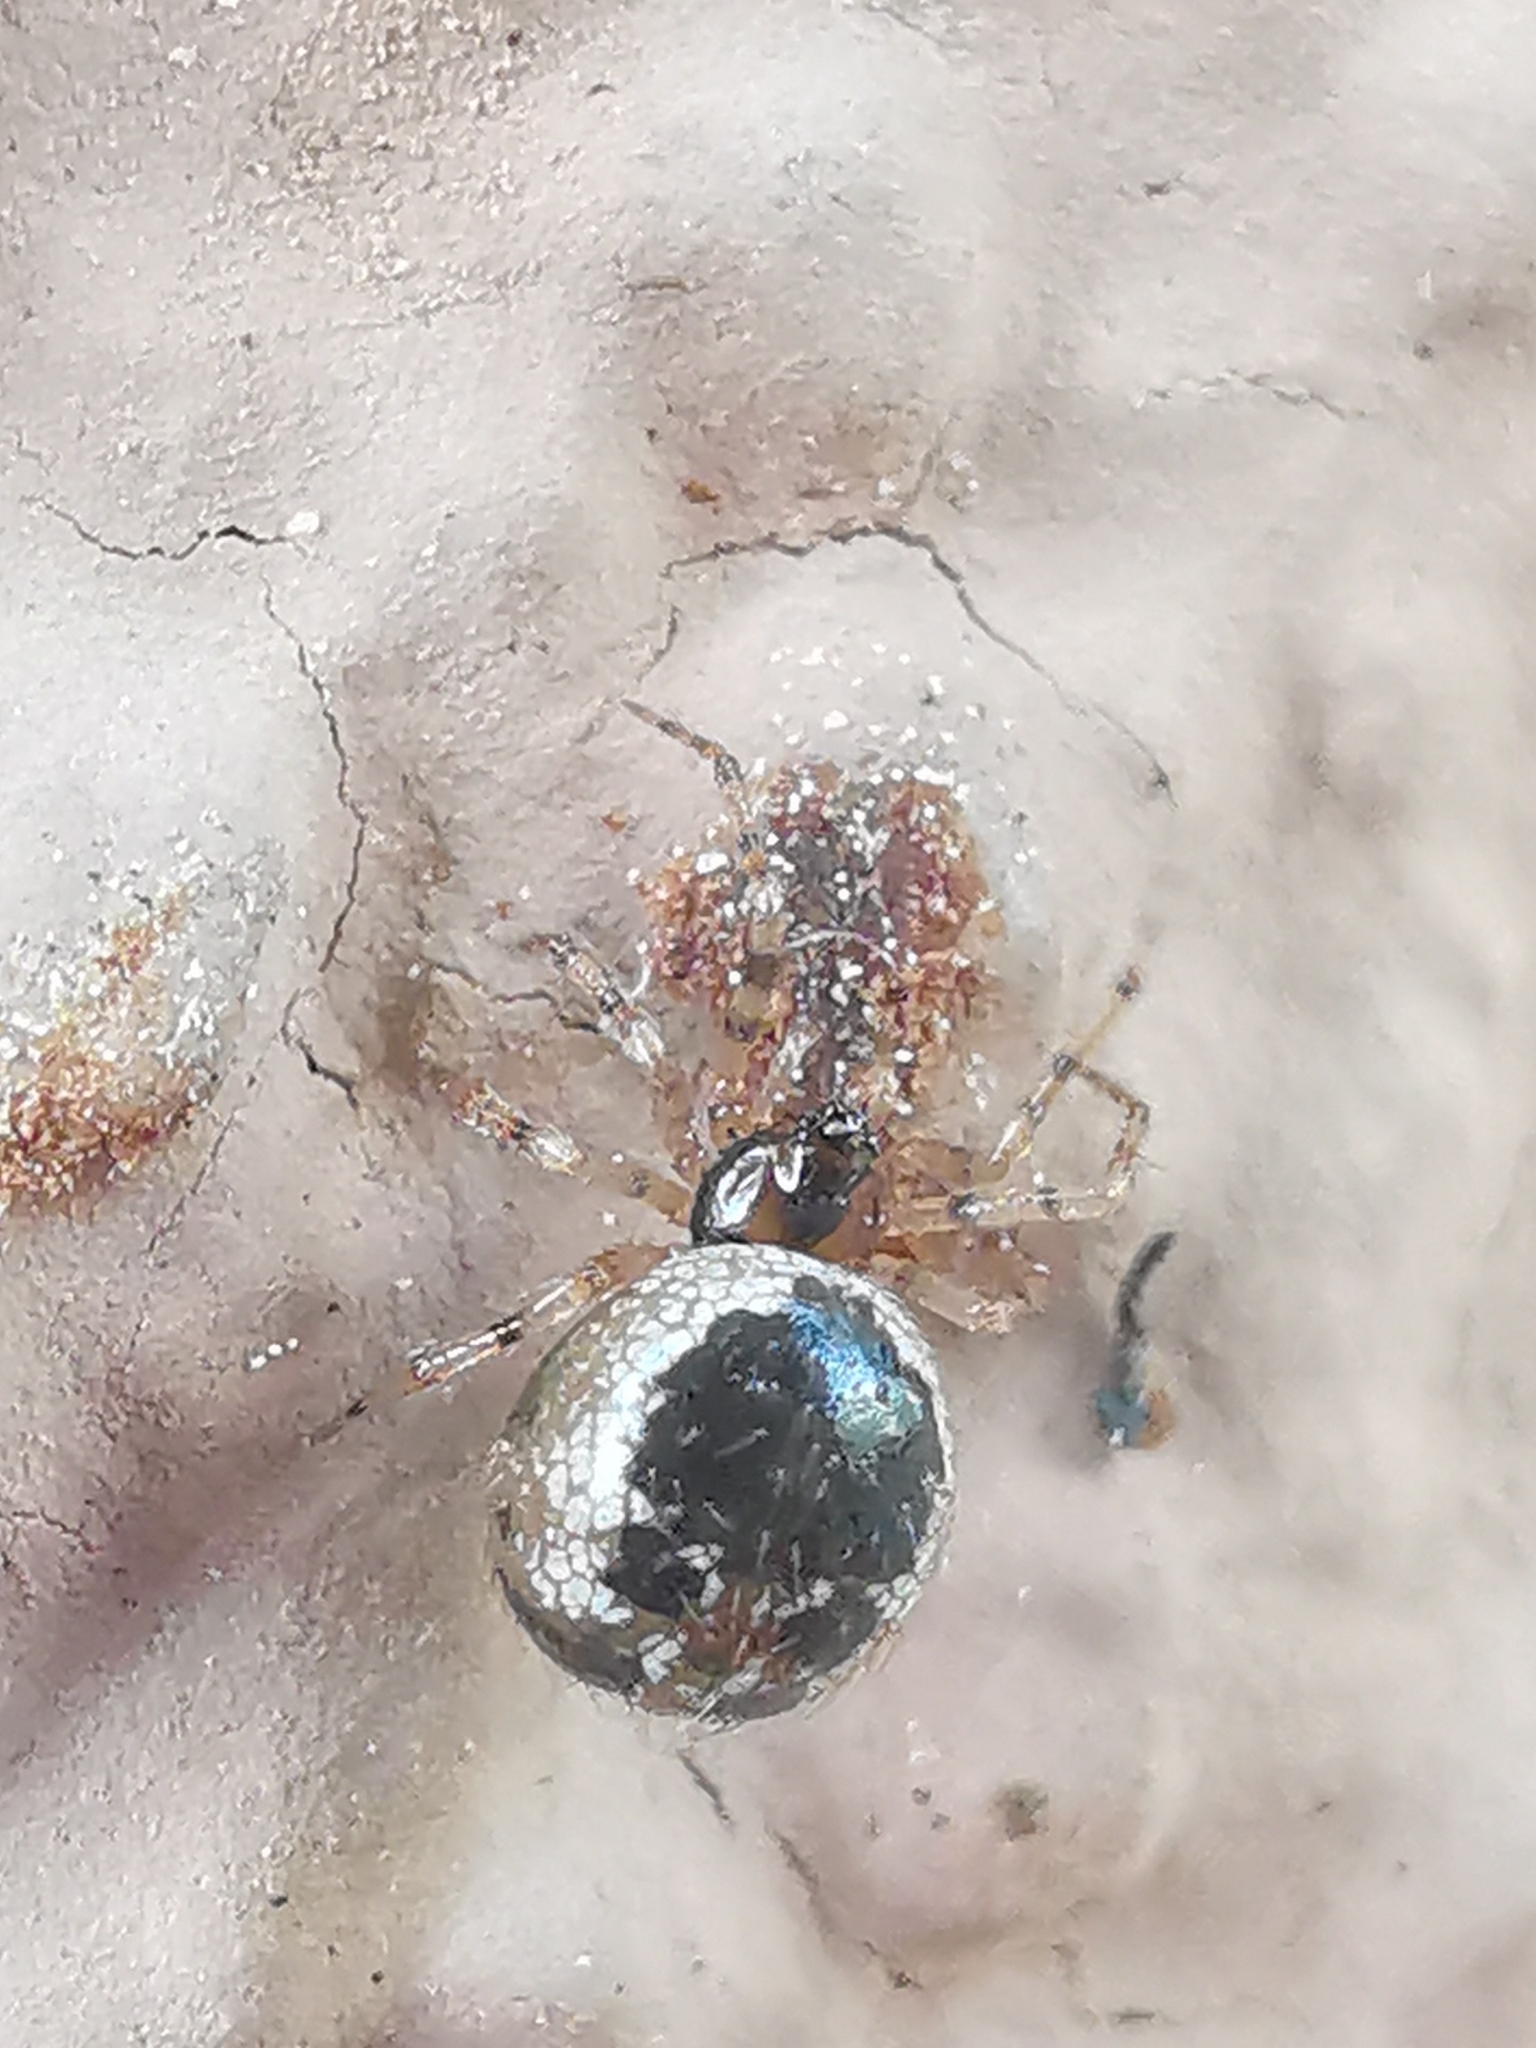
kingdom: Animalia
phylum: Arthropoda
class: Arachnida
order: Araneae
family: Theridiidae
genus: Sardinidion
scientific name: Sardinidion blackwalli
